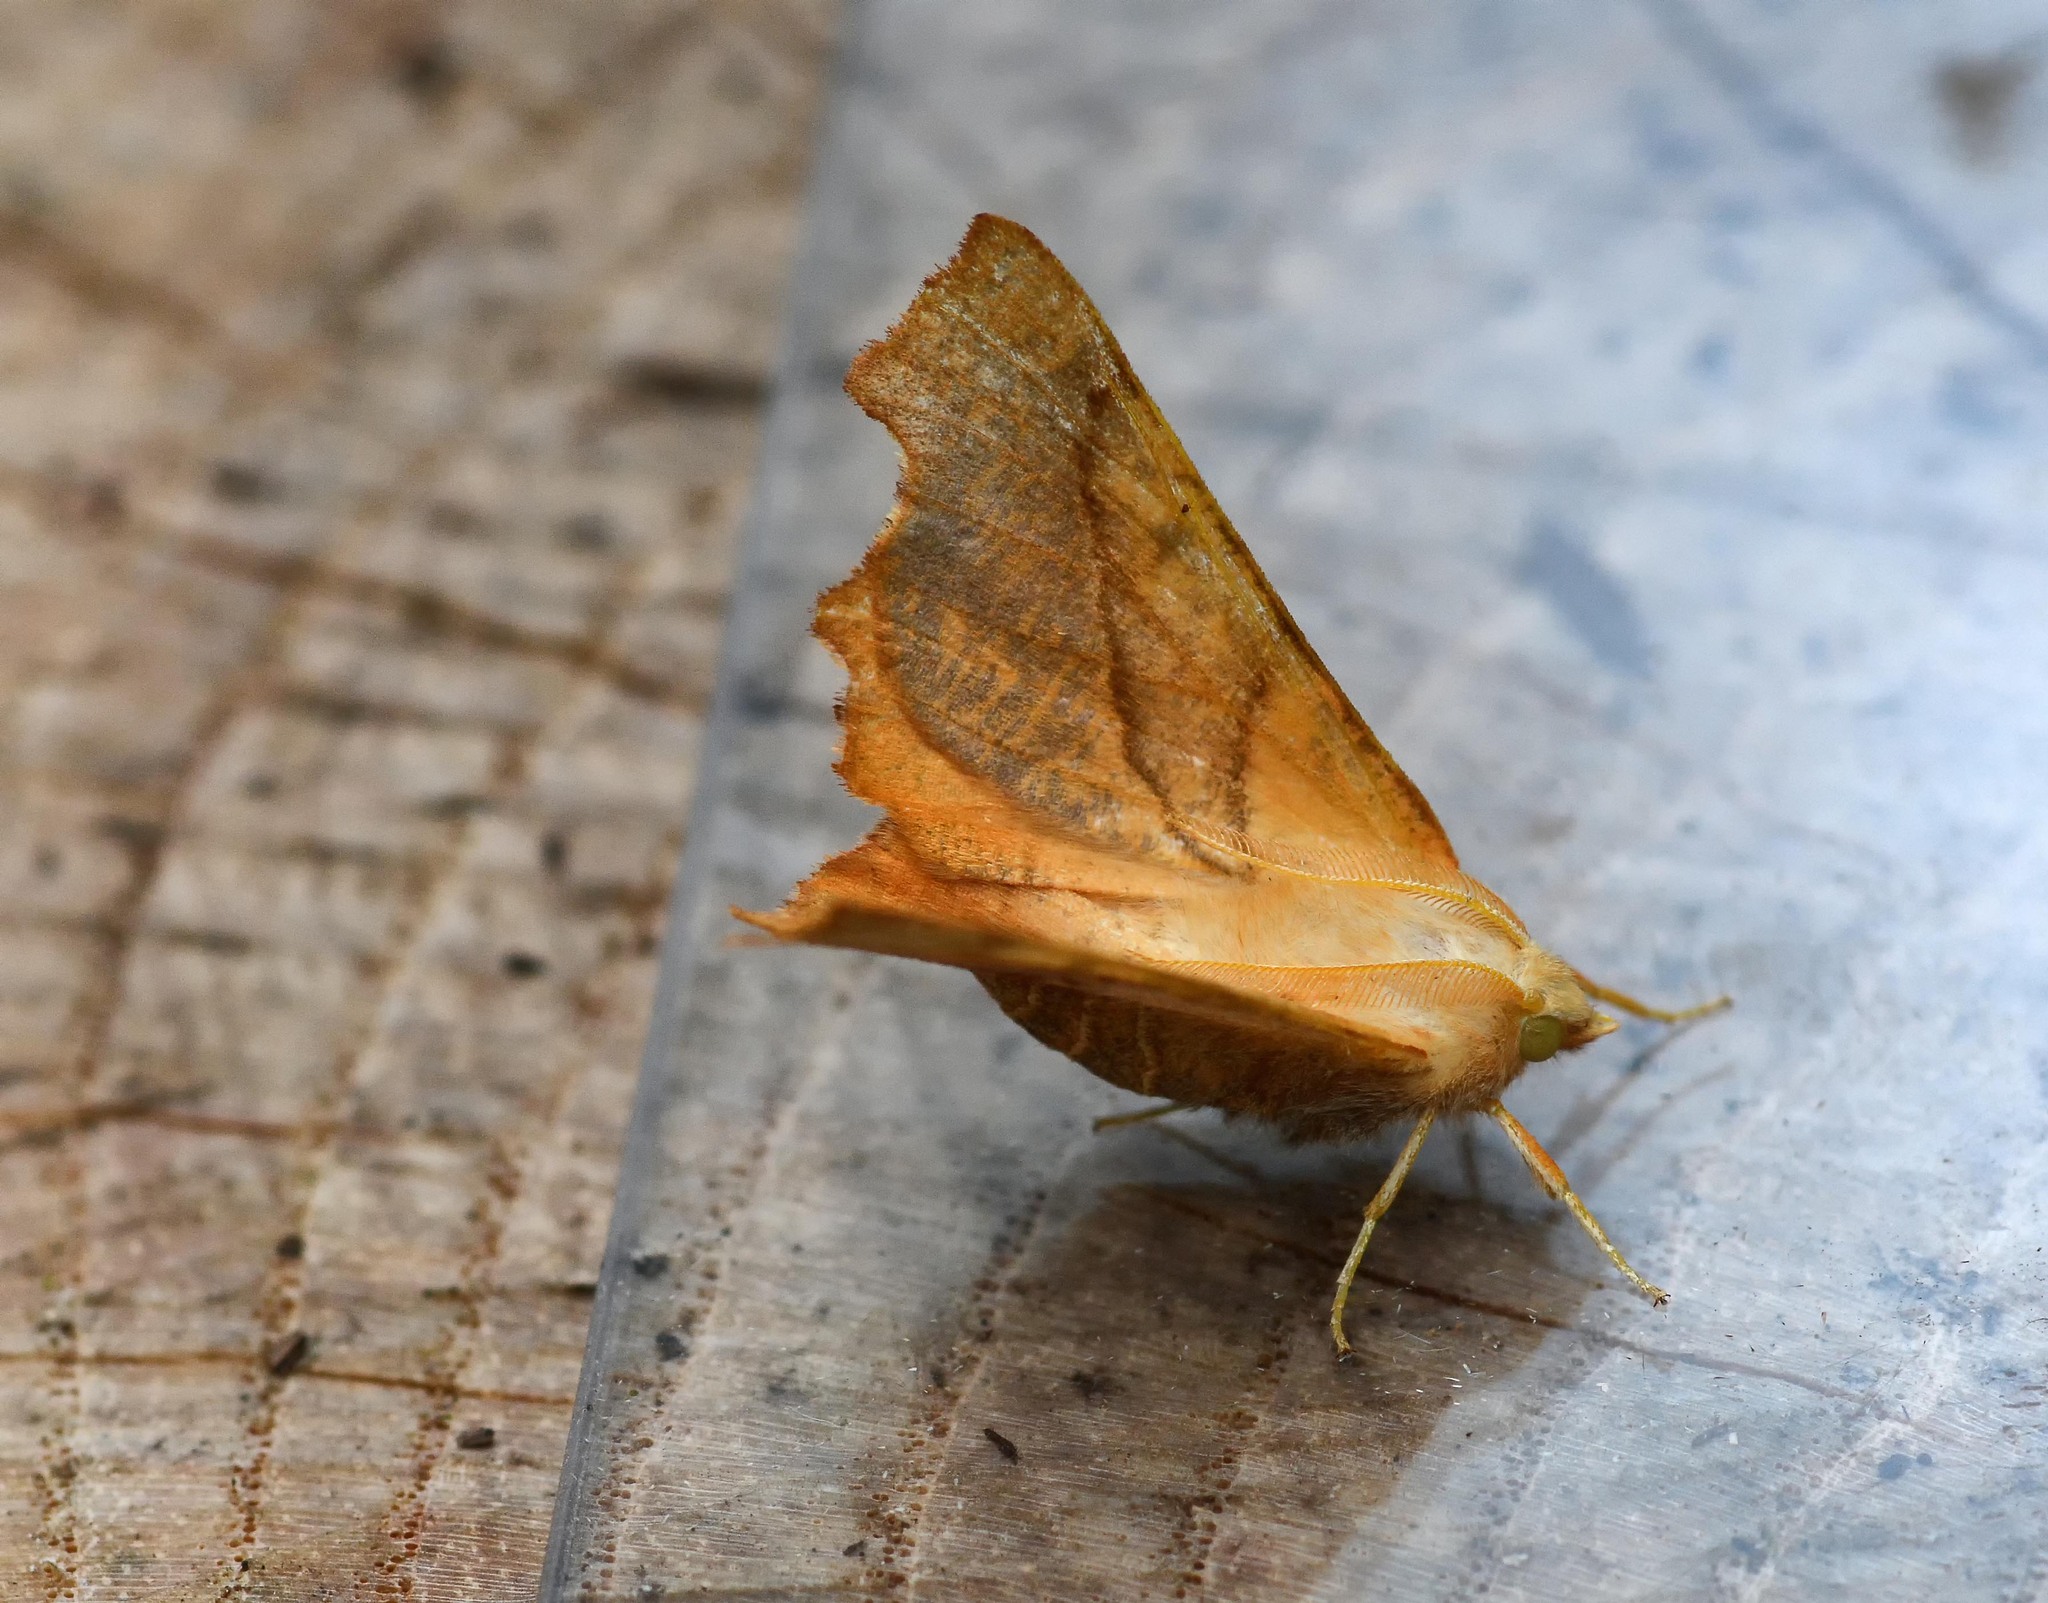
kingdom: Animalia
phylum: Arthropoda
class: Insecta
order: Lepidoptera
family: Geometridae
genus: Ennomos
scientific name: Ennomos fuscantaria
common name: Dusky thorn
